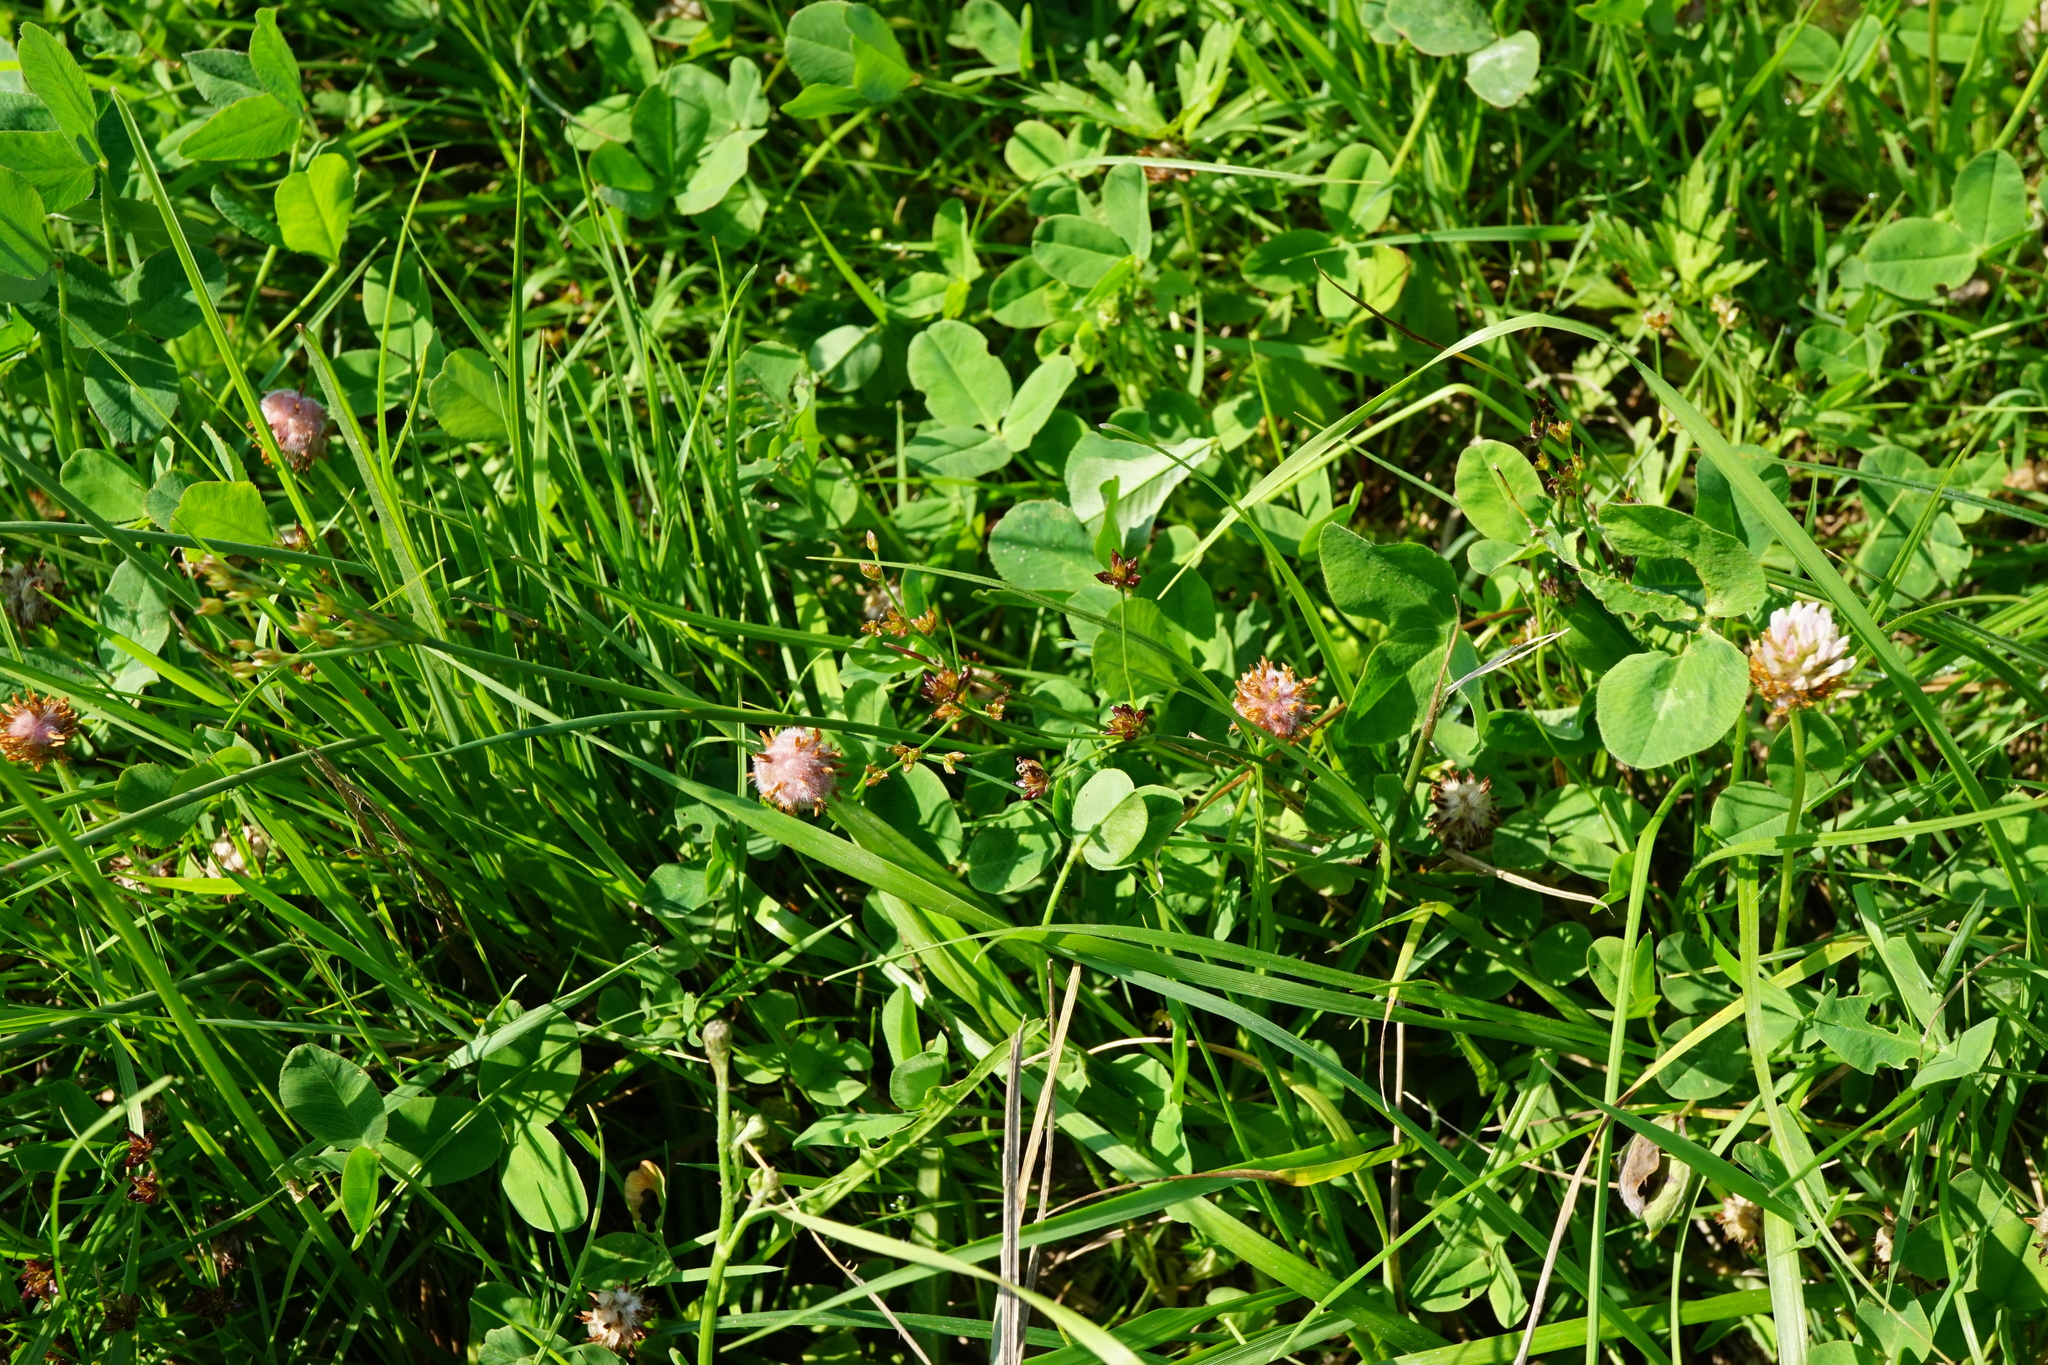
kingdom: Plantae
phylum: Tracheophyta
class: Liliopsida
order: Poales
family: Juncaceae
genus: Juncus
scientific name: Juncus articulatus
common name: Jointed rush
